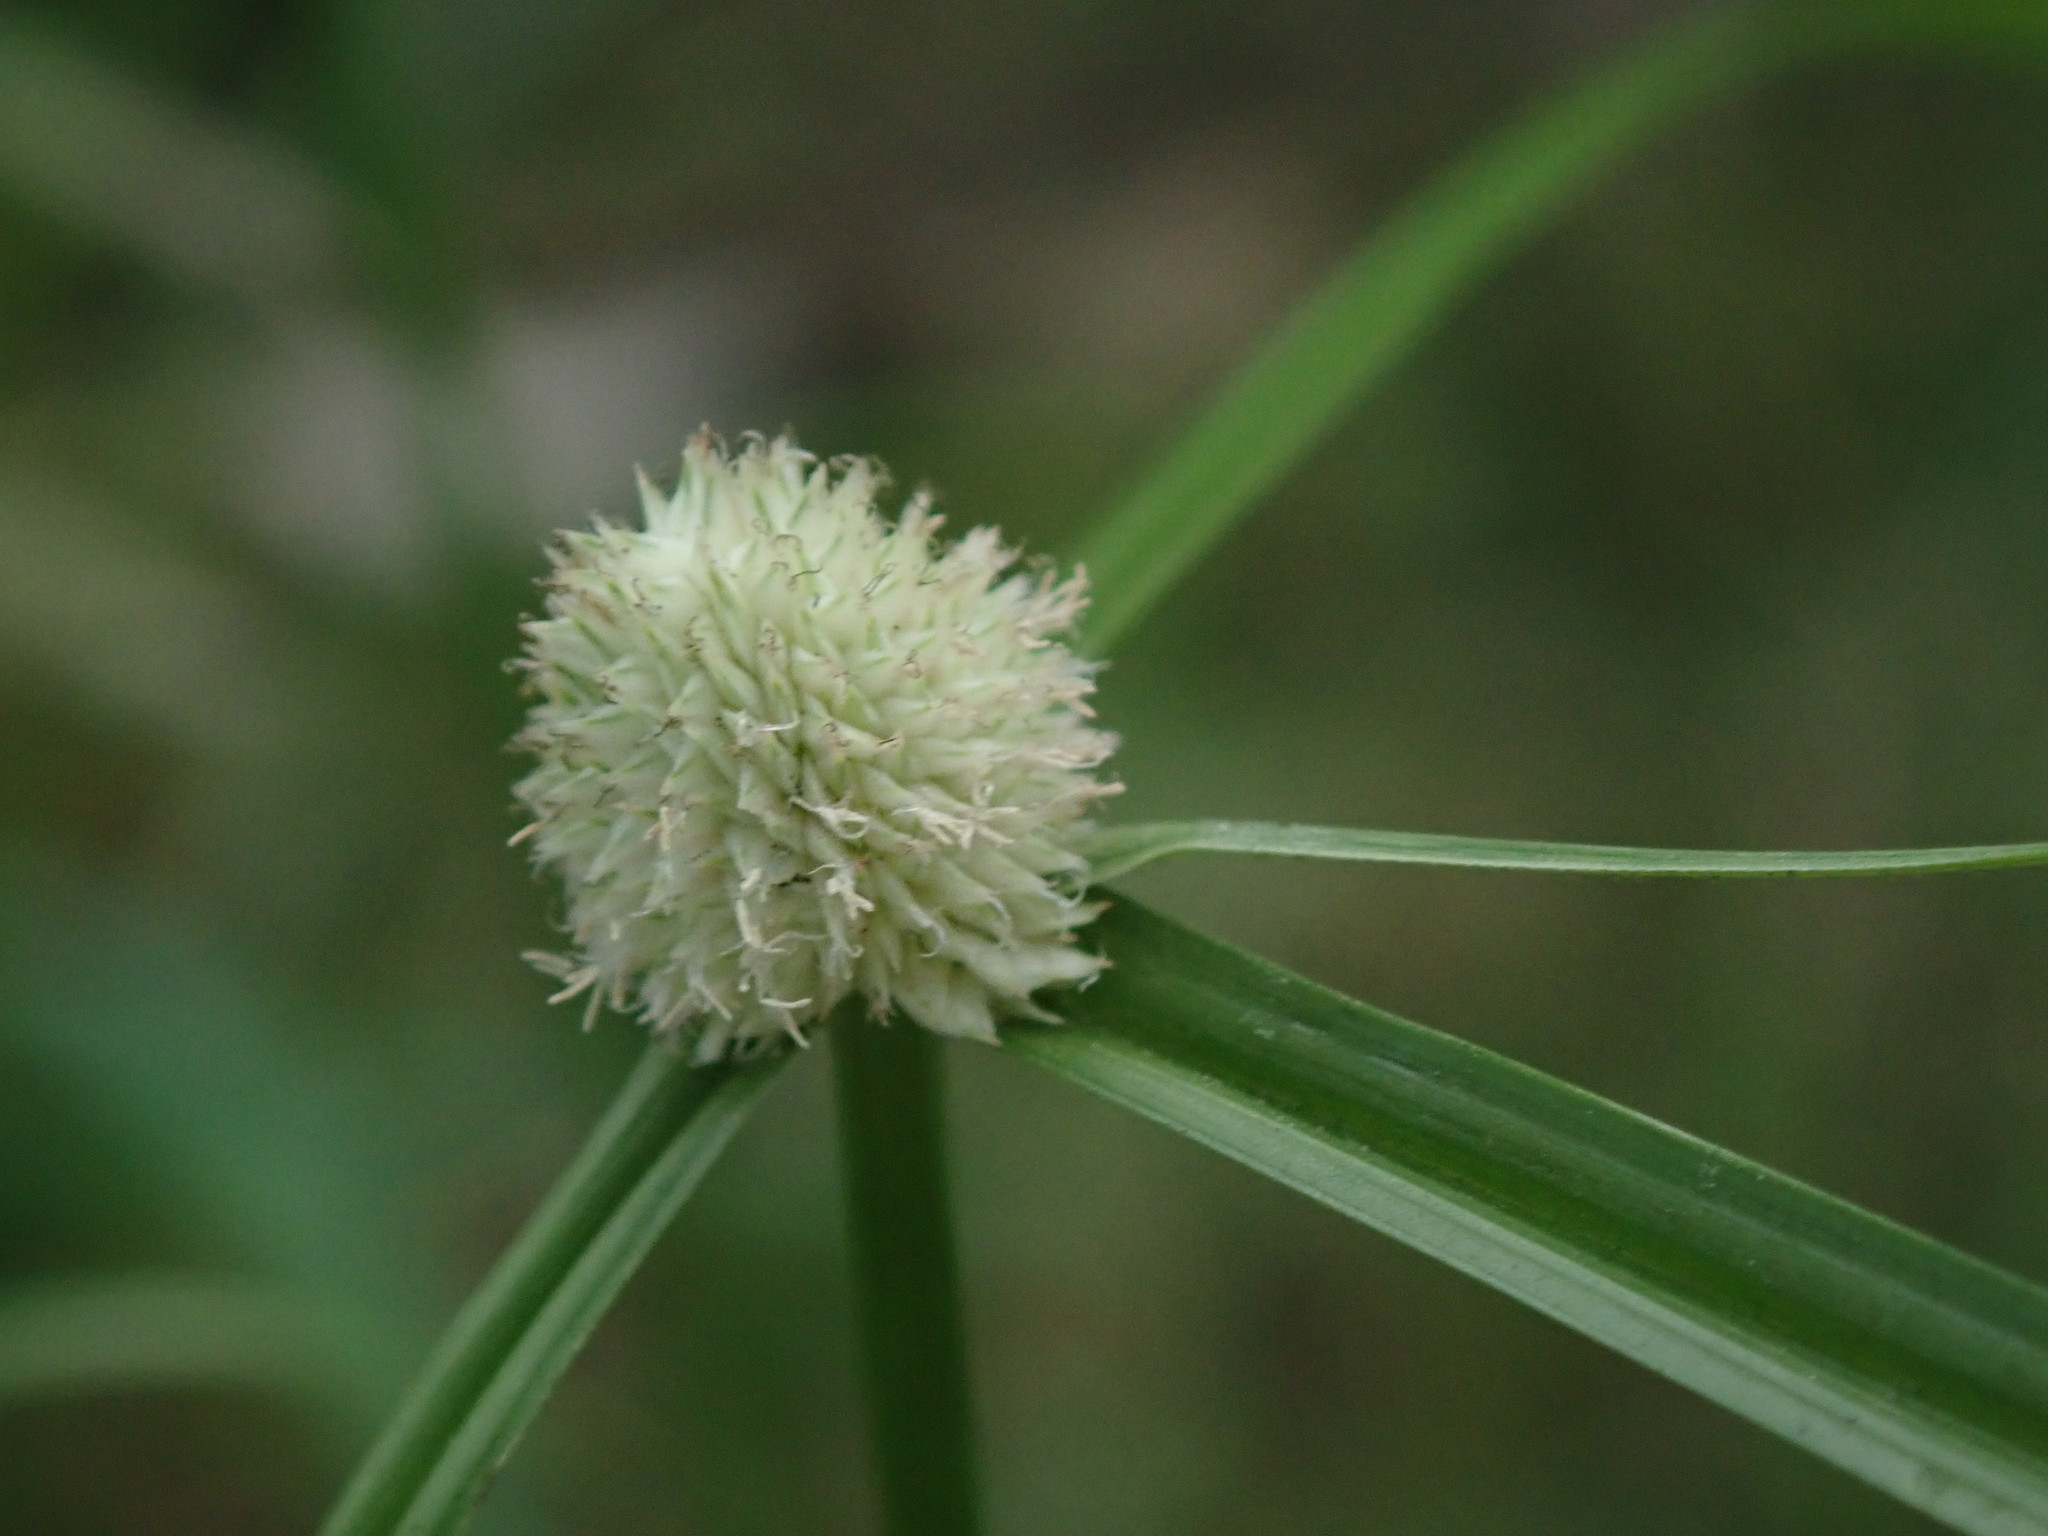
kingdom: Plantae
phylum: Tracheophyta
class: Liliopsida
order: Poales
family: Cyperaceae
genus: Cyperus
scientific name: Cyperus mindorensis
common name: Flatsedge
